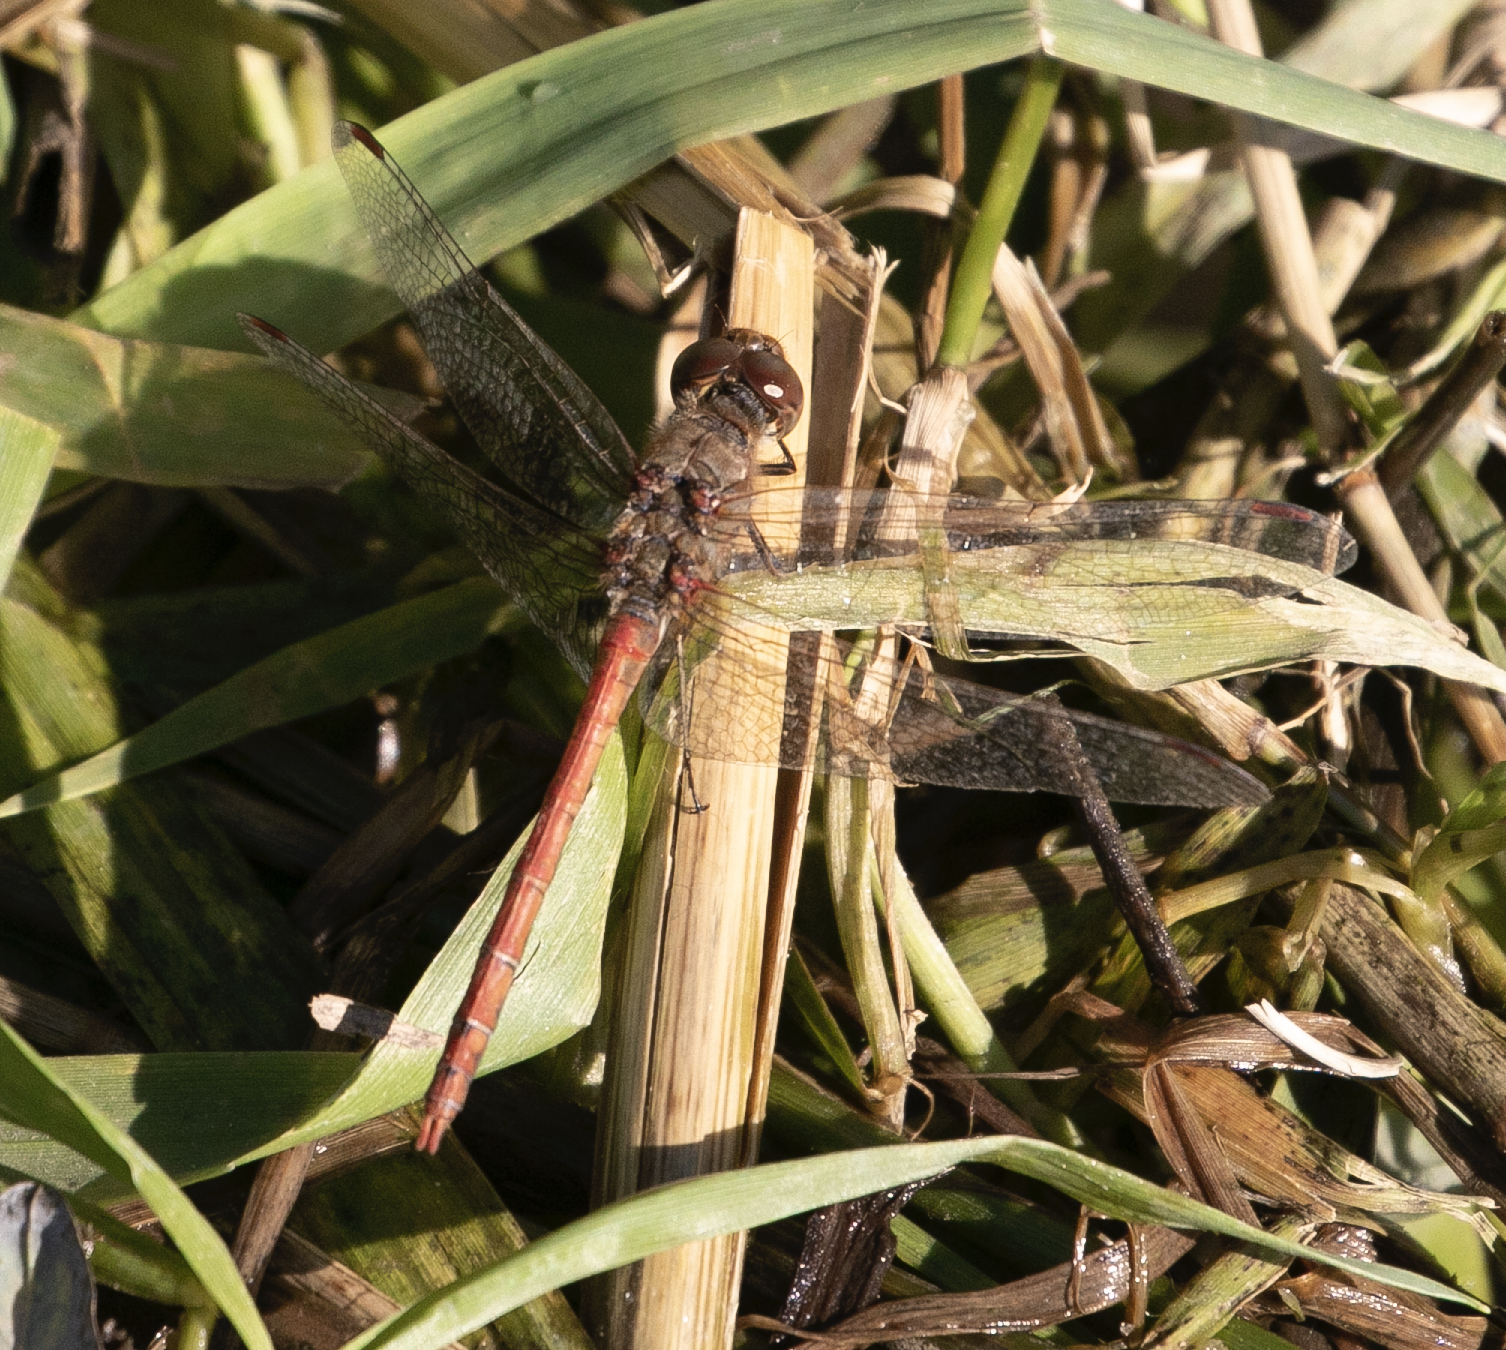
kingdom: Animalia
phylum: Arthropoda
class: Insecta
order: Odonata
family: Libellulidae
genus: Sympetrum
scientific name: Sympetrum striolatum
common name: Common darter
